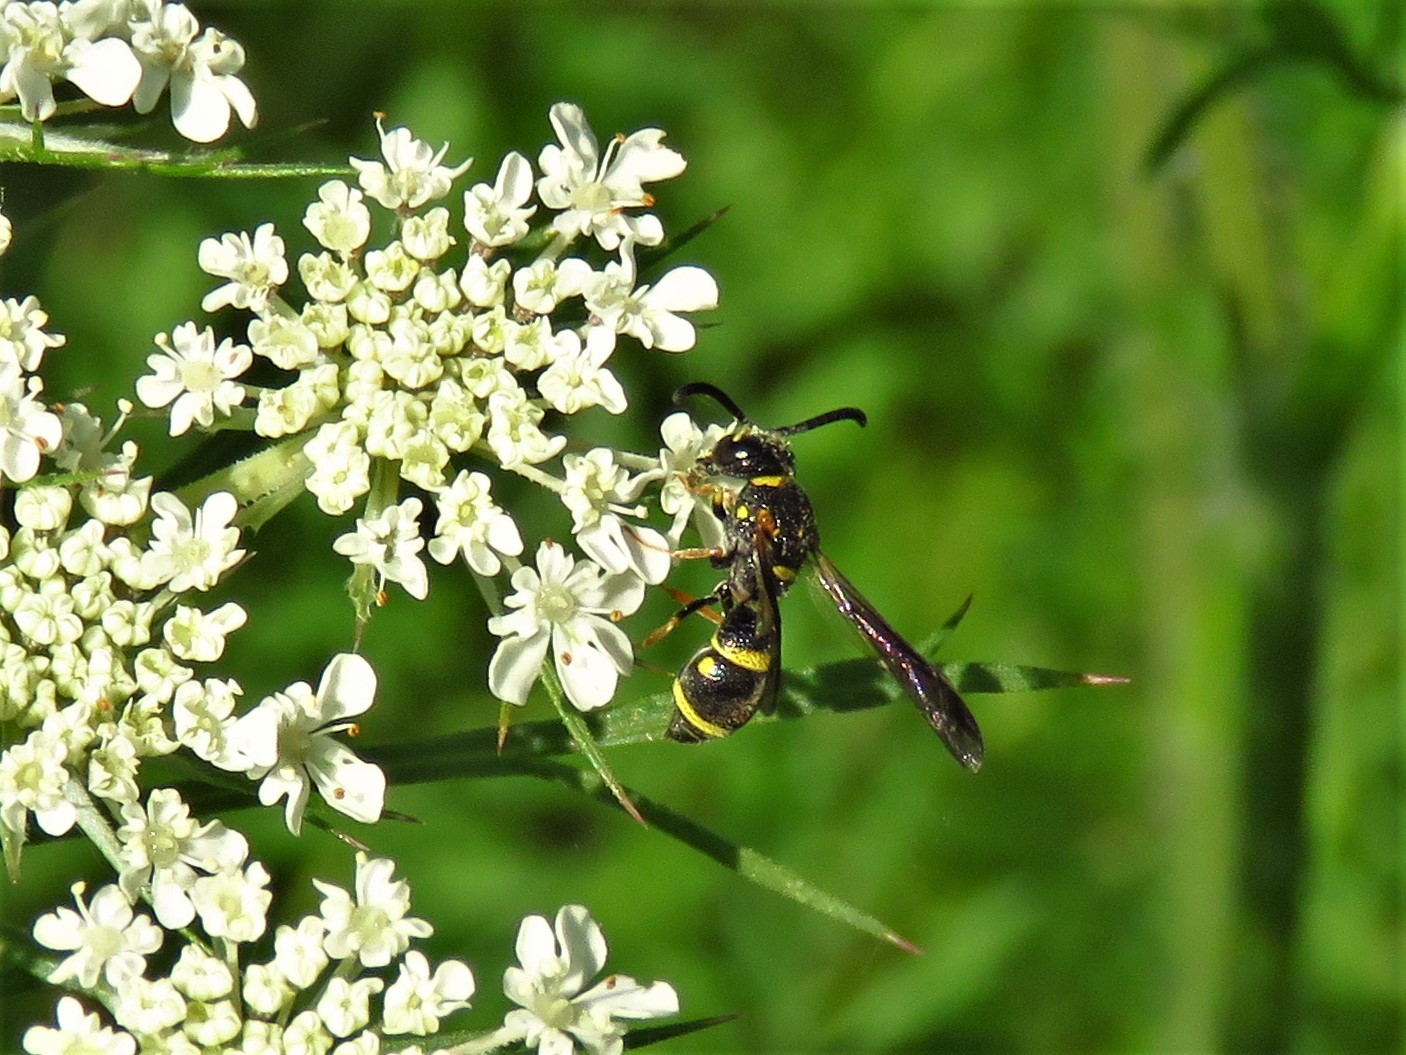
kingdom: Animalia
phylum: Arthropoda
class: Insecta
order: Hymenoptera
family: Eumenidae
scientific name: Eumenidae
